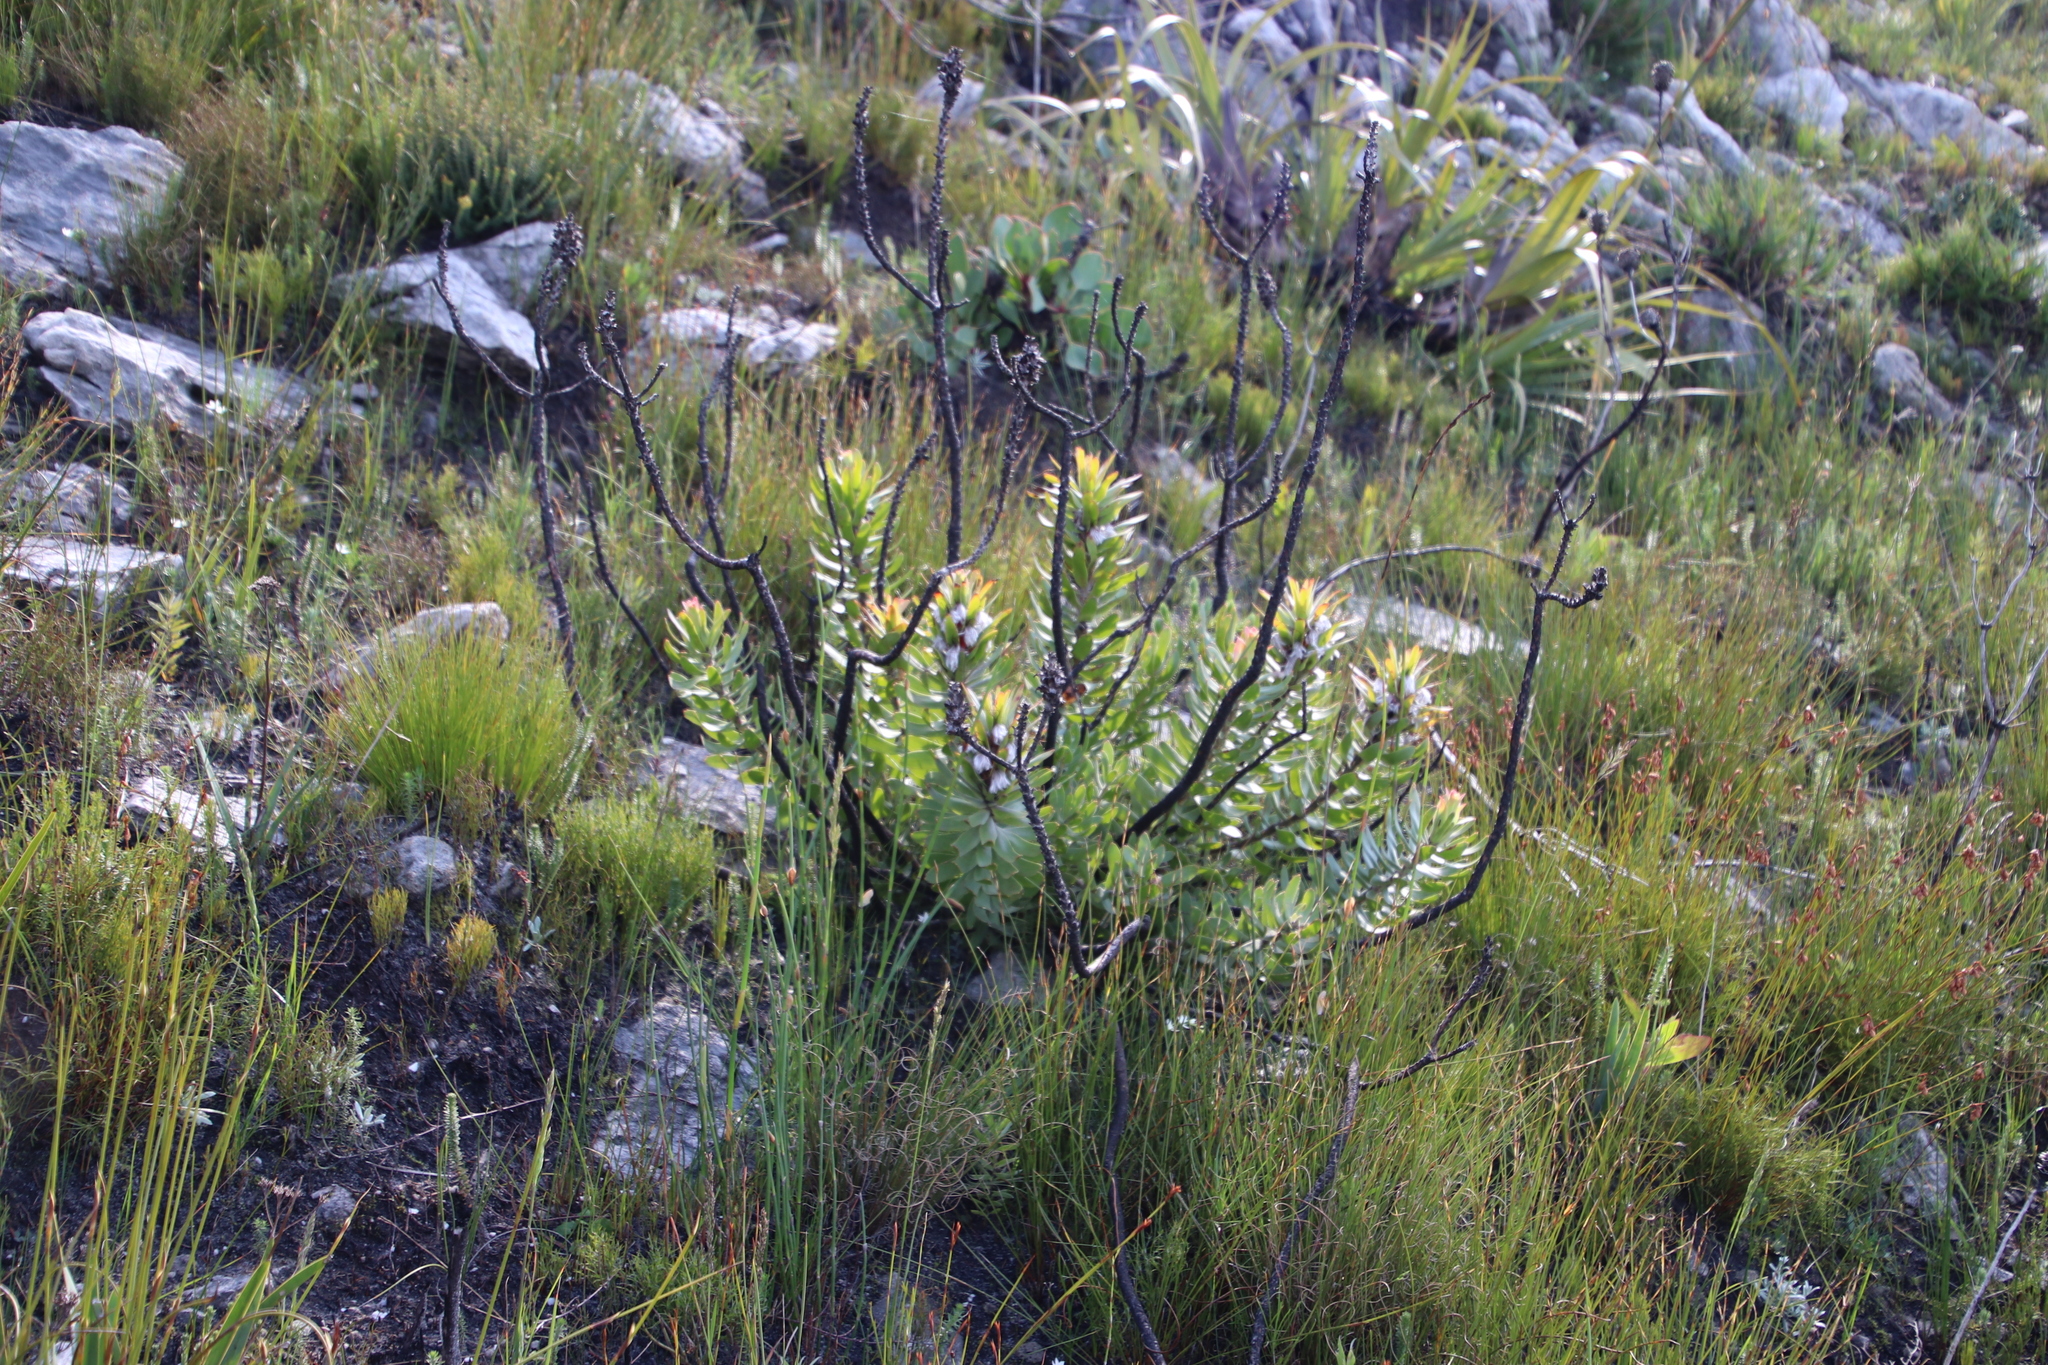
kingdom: Plantae
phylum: Tracheophyta
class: Magnoliopsida
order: Proteales
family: Proteaceae
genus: Mimetes
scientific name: Mimetes cucullatus
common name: Common pagoda
